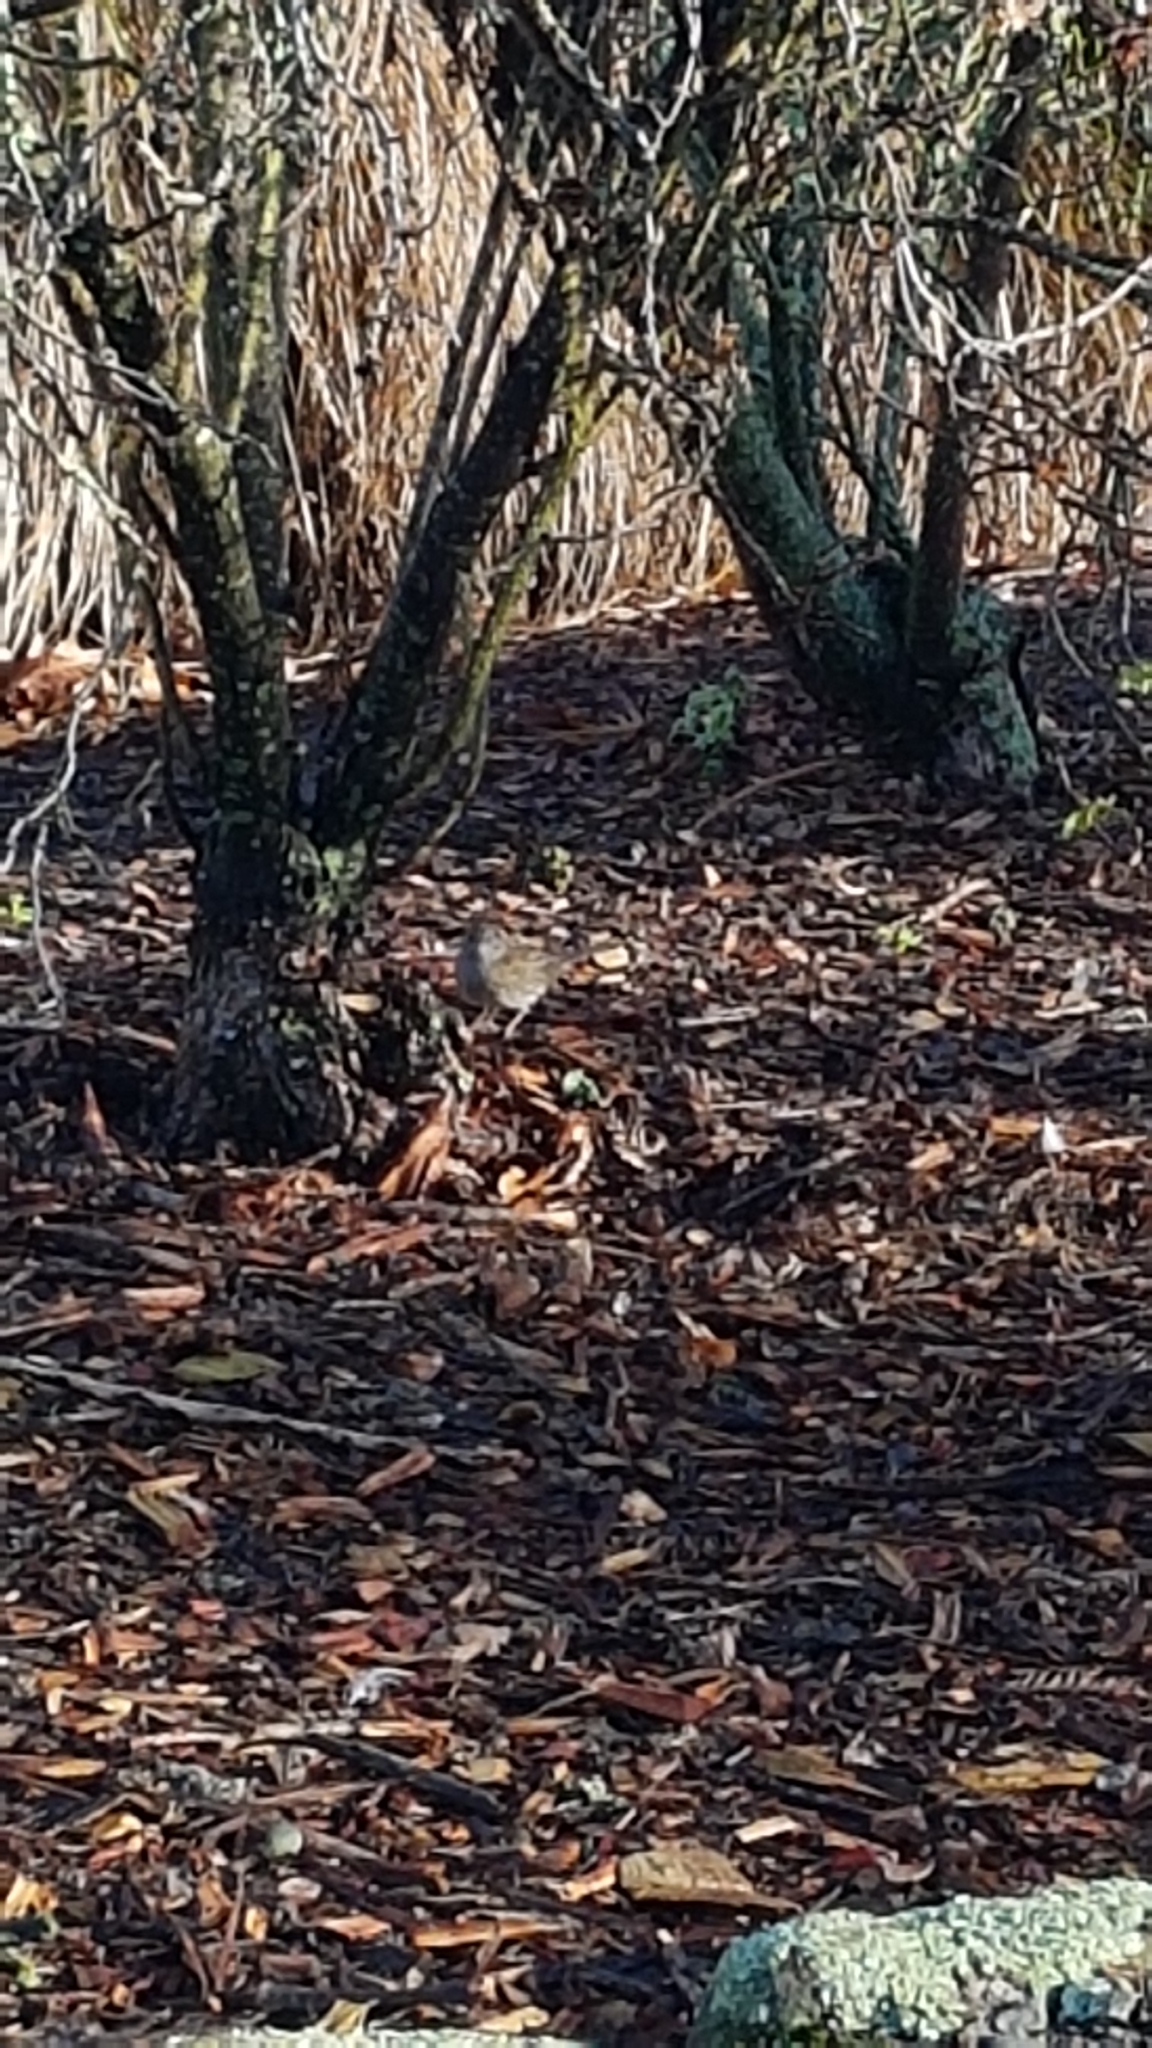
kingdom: Animalia
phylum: Chordata
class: Aves
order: Passeriformes
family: Prunellidae
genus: Prunella
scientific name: Prunella modularis
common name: Dunnock
